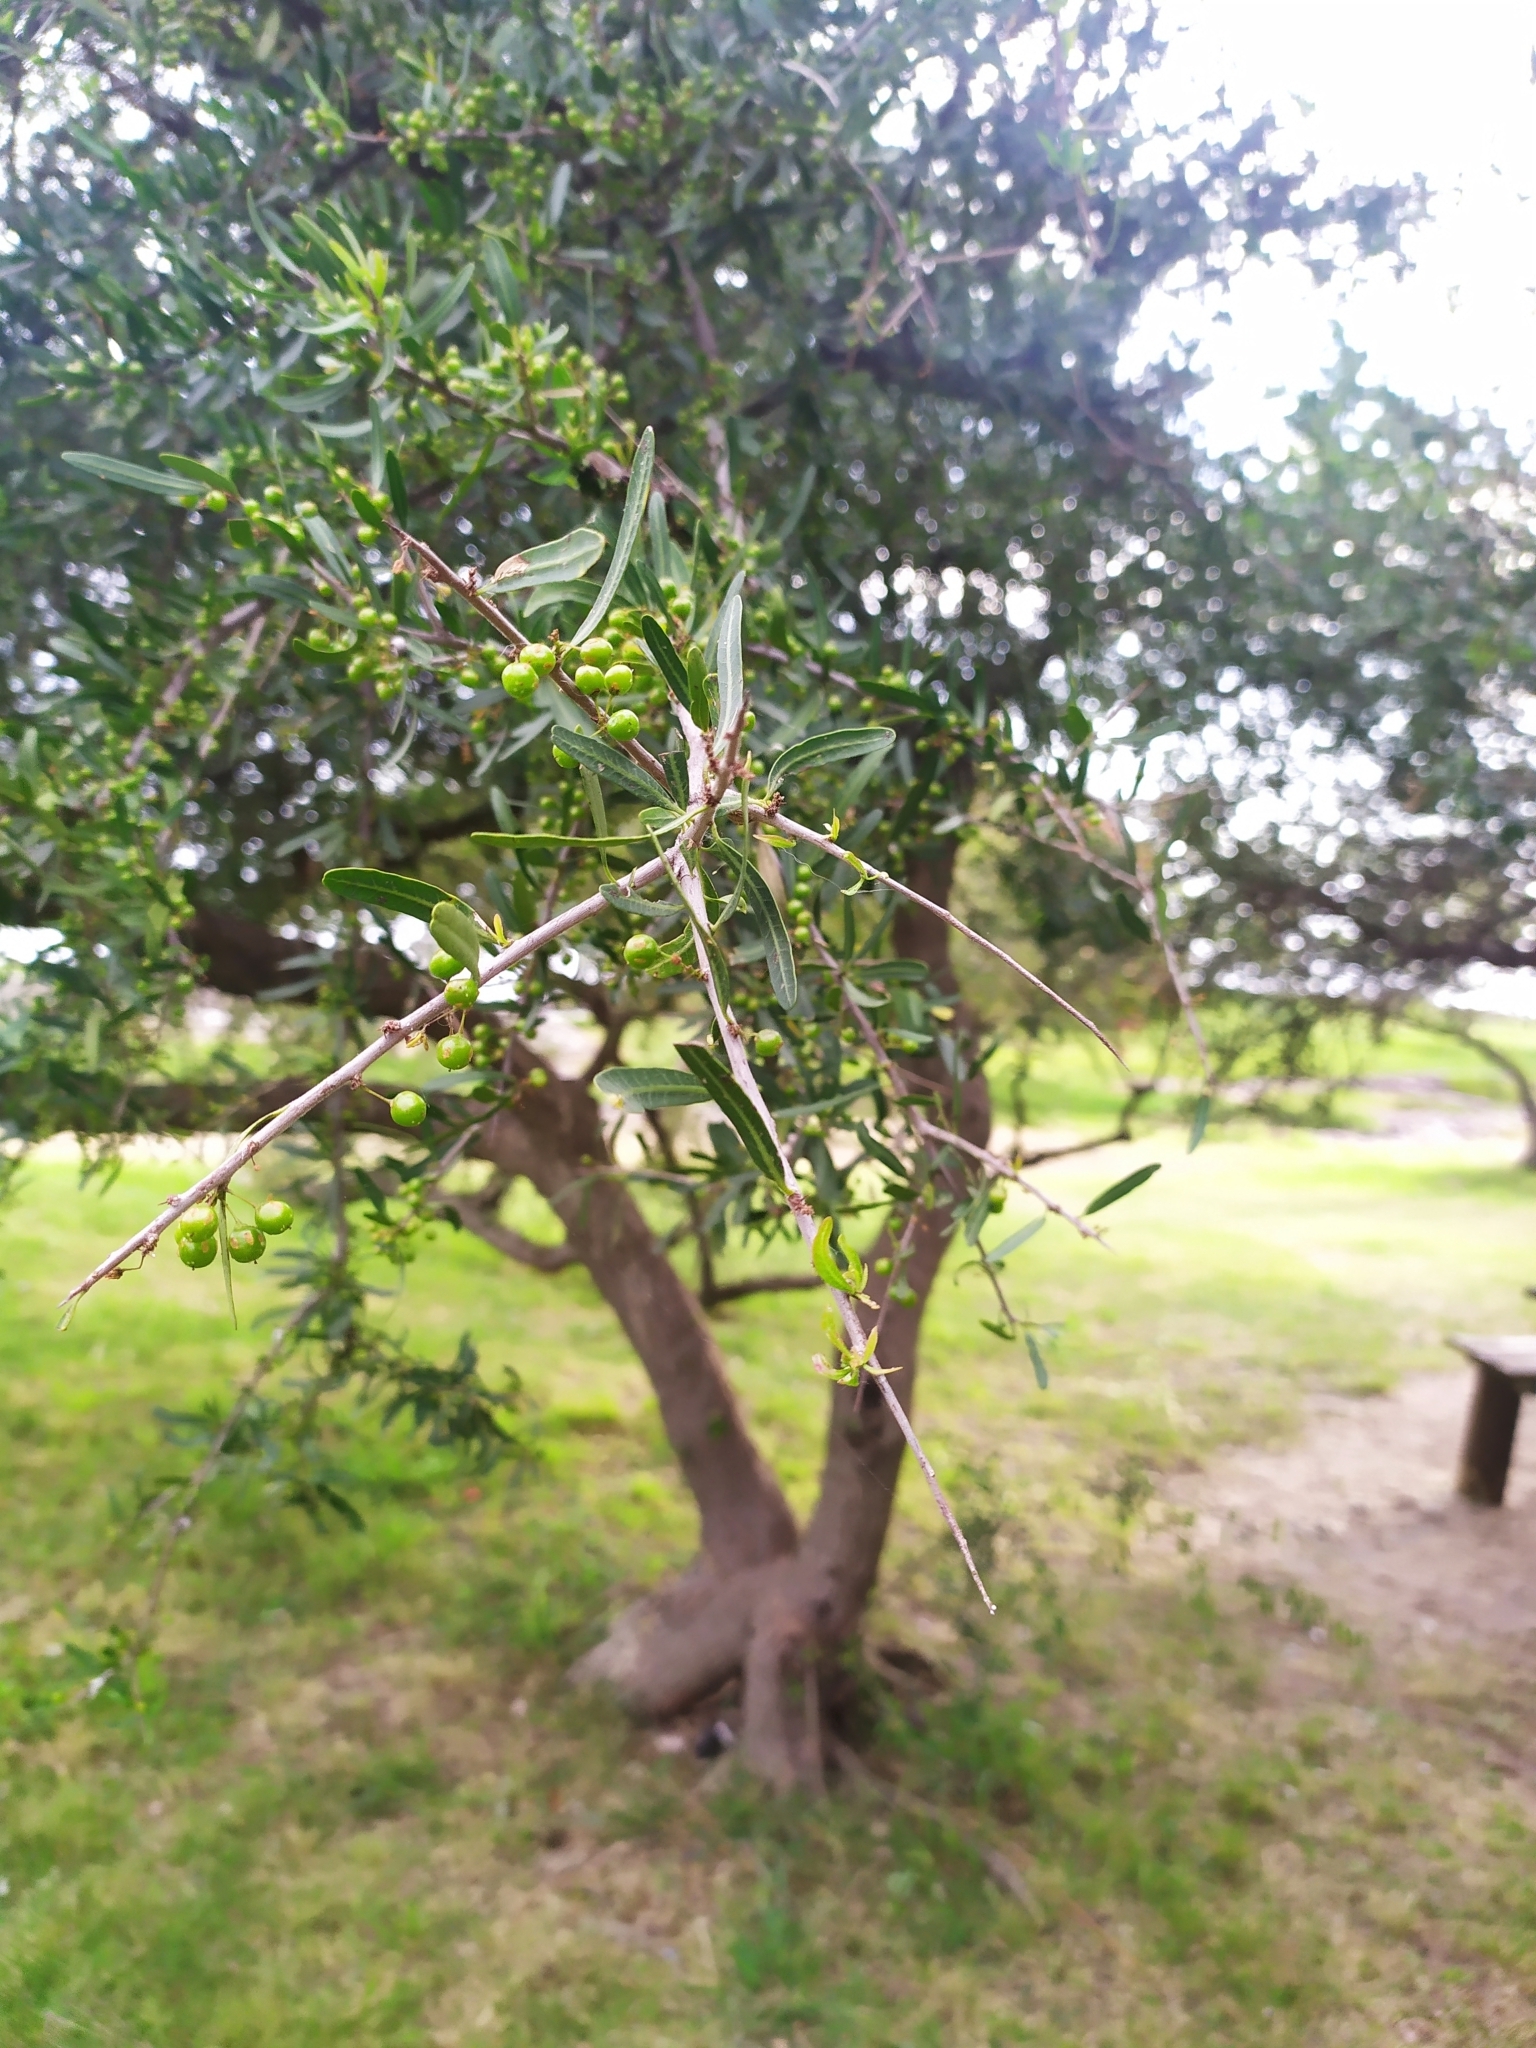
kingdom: Plantae
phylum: Tracheophyta
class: Magnoliopsida
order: Sapindales
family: Anacardiaceae
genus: Schinus
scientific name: Schinus longifolia
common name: Longleaf peppertree
